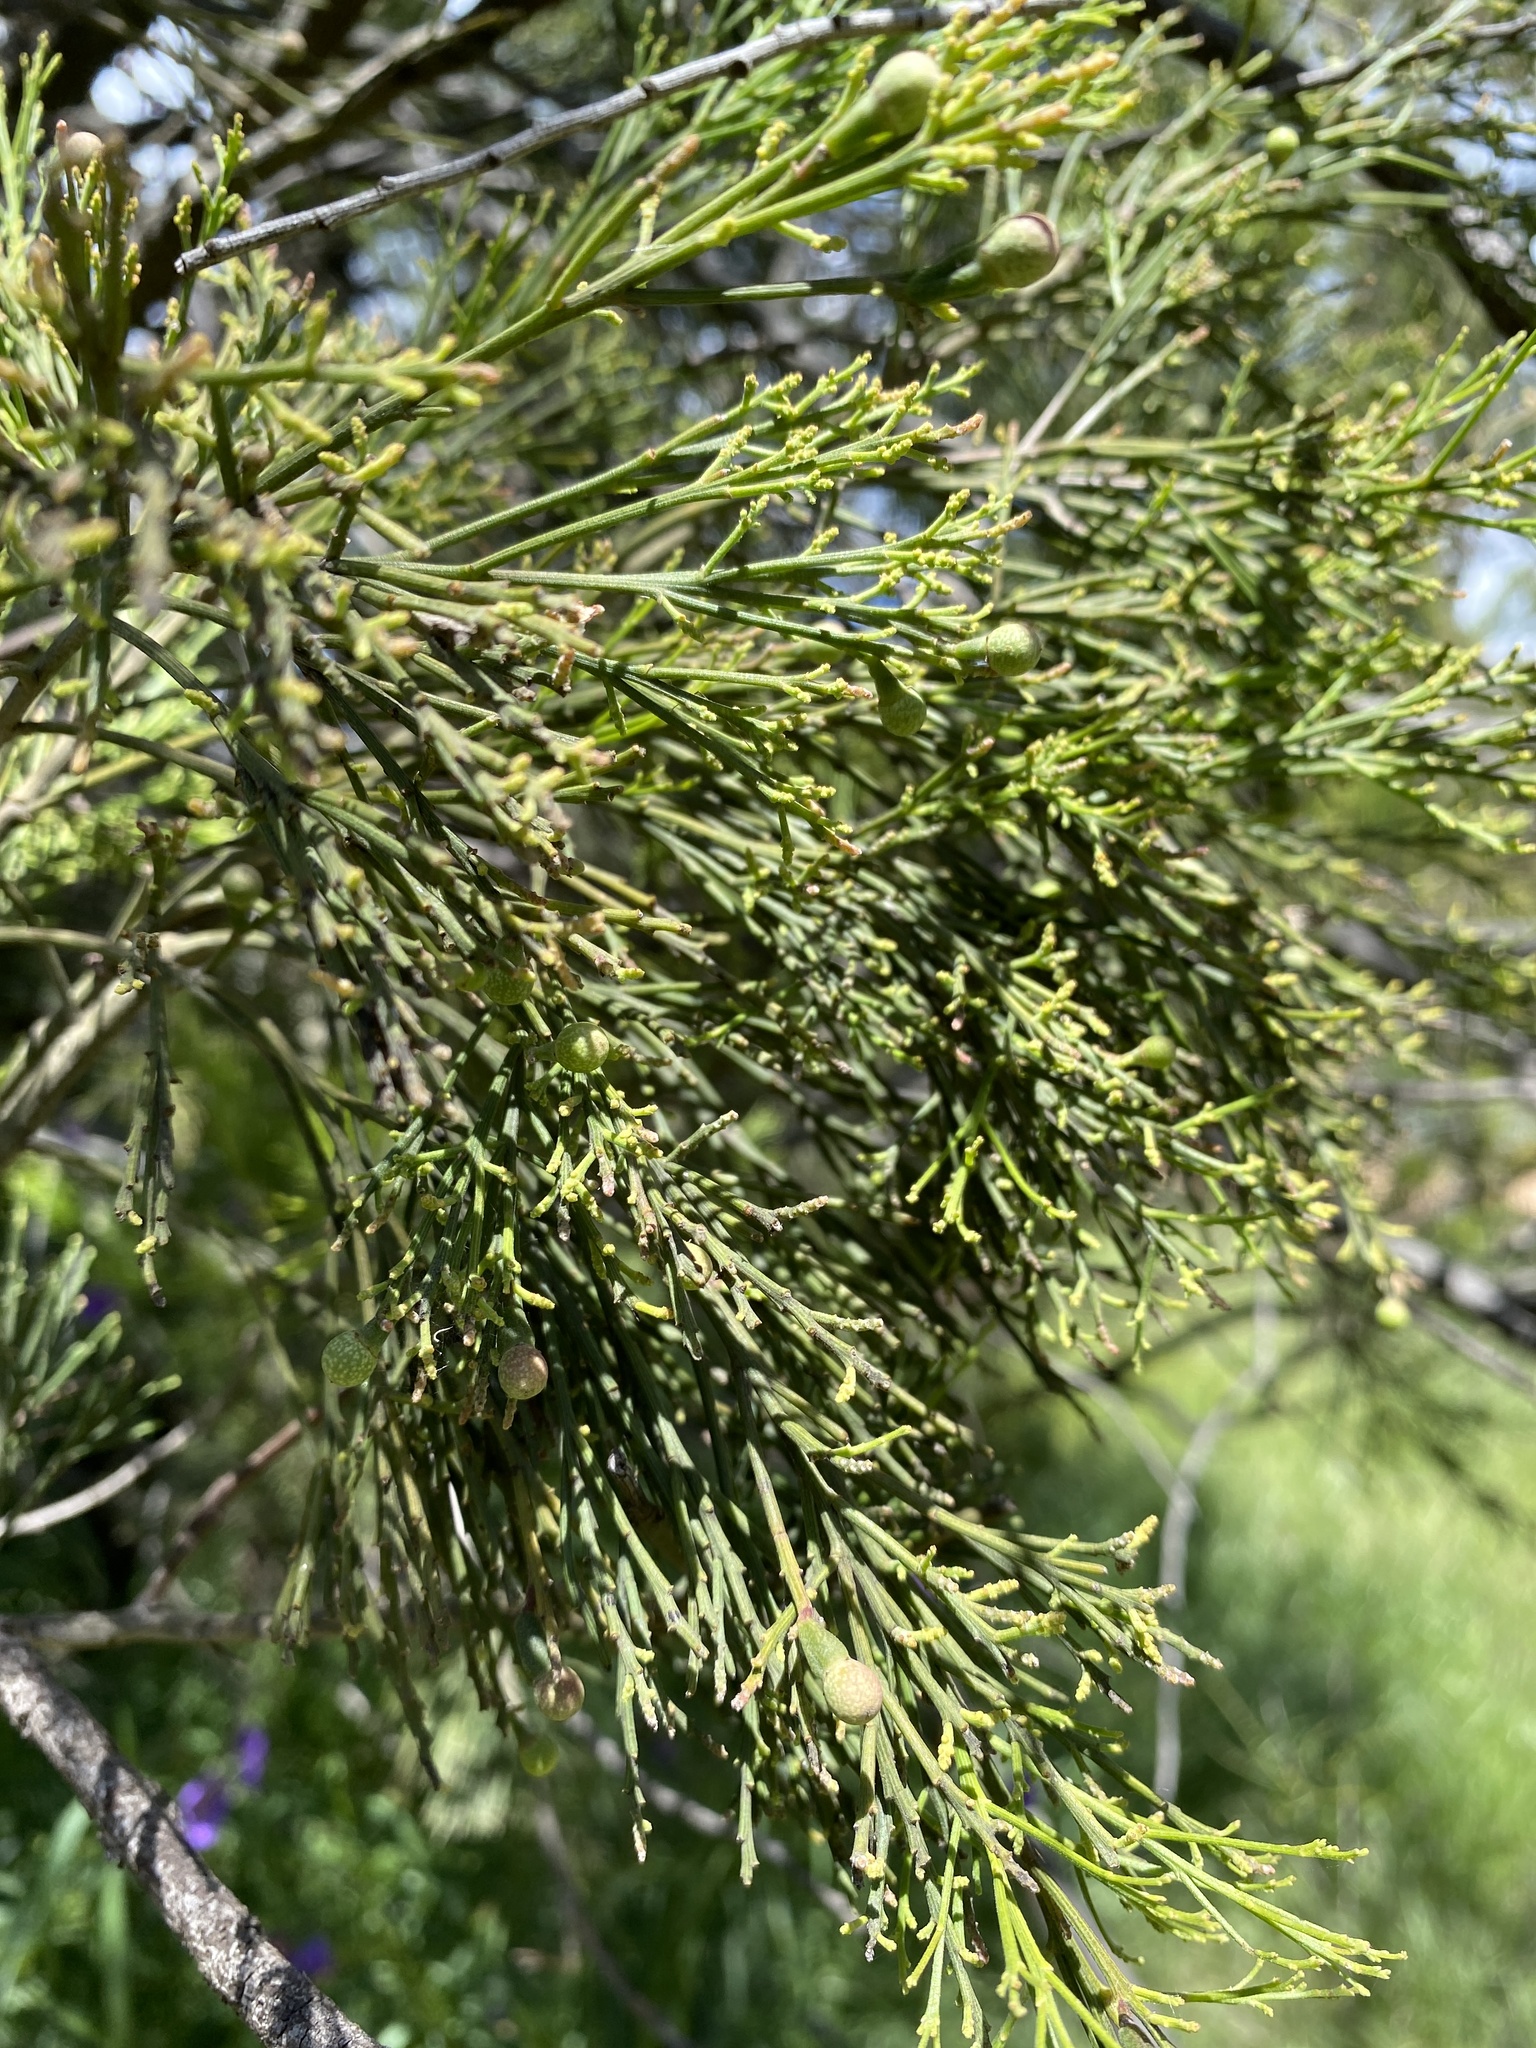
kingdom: Plantae
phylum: Tracheophyta
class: Magnoliopsida
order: Santalales
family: Santalaceae
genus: Exocarpos
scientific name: Exocarpos cupressiformis
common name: Cherry ballart
